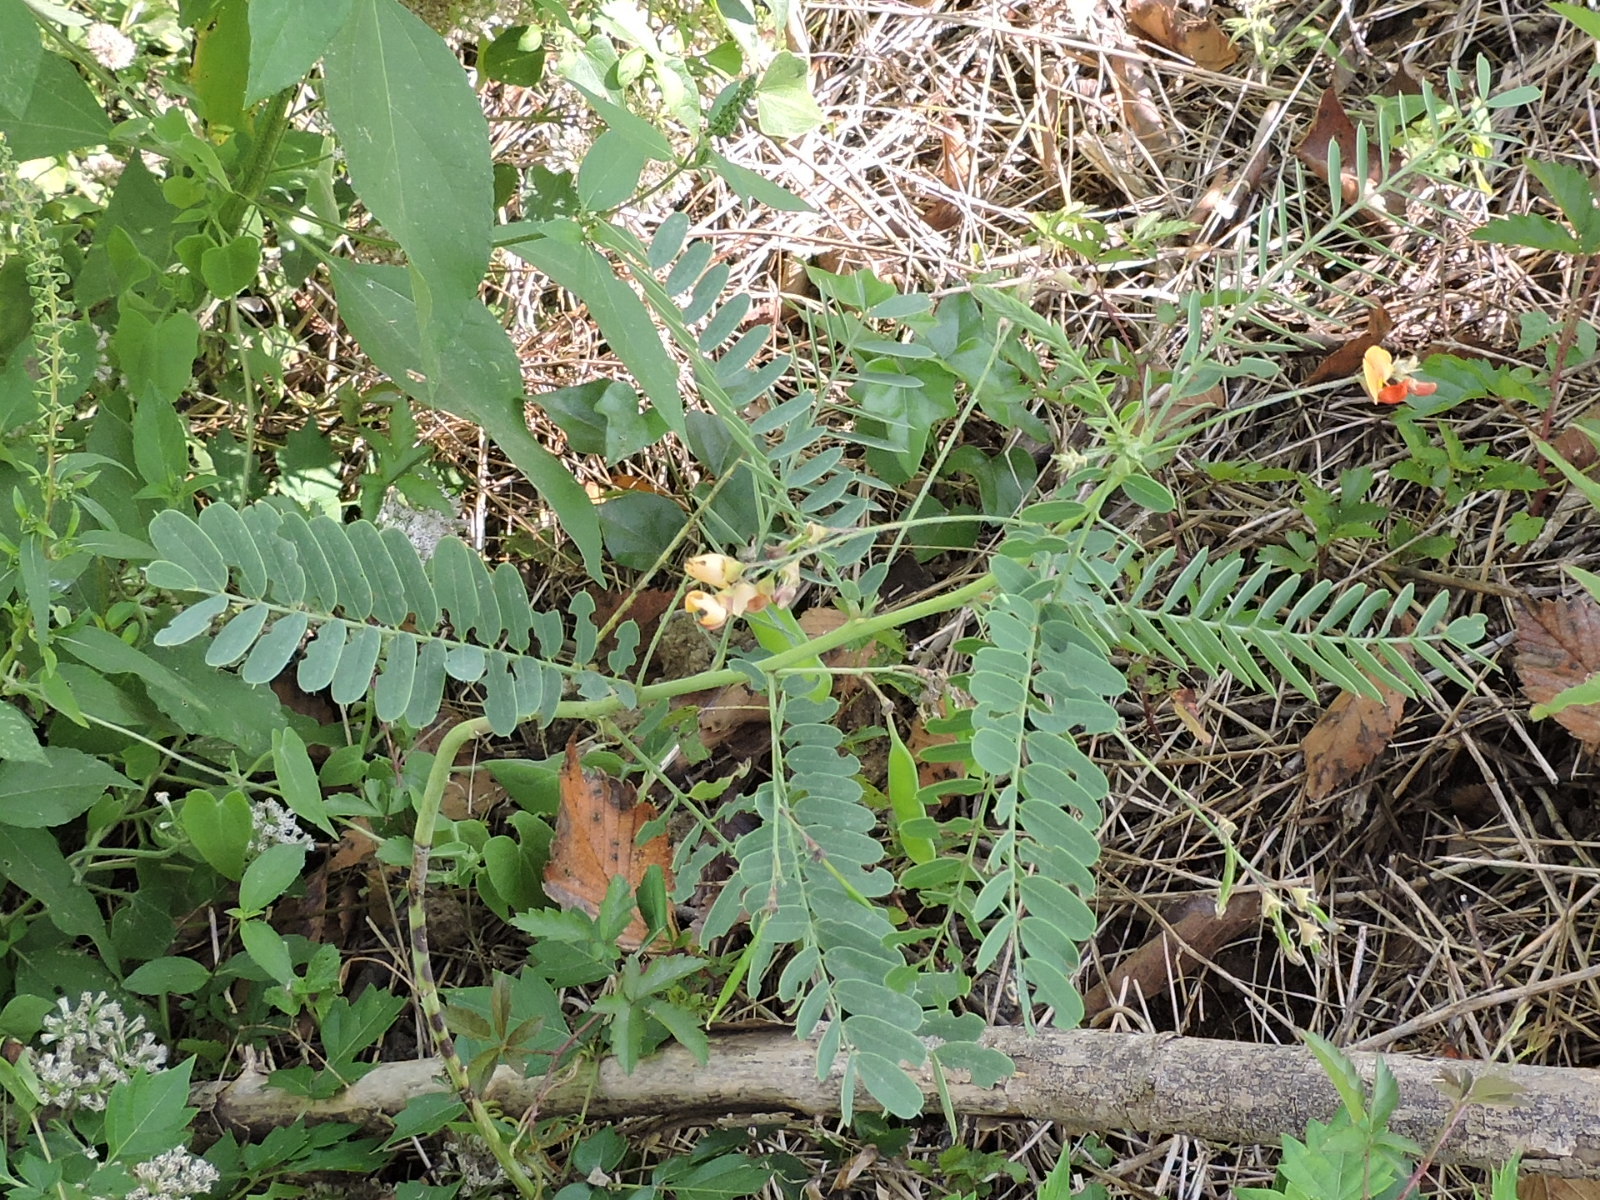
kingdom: Plantae
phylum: Tracheophyta
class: Magnoliopsida
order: Fabales
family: Fabaceae
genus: Sesbania
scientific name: Sesbania vesicaria
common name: Bagpod
